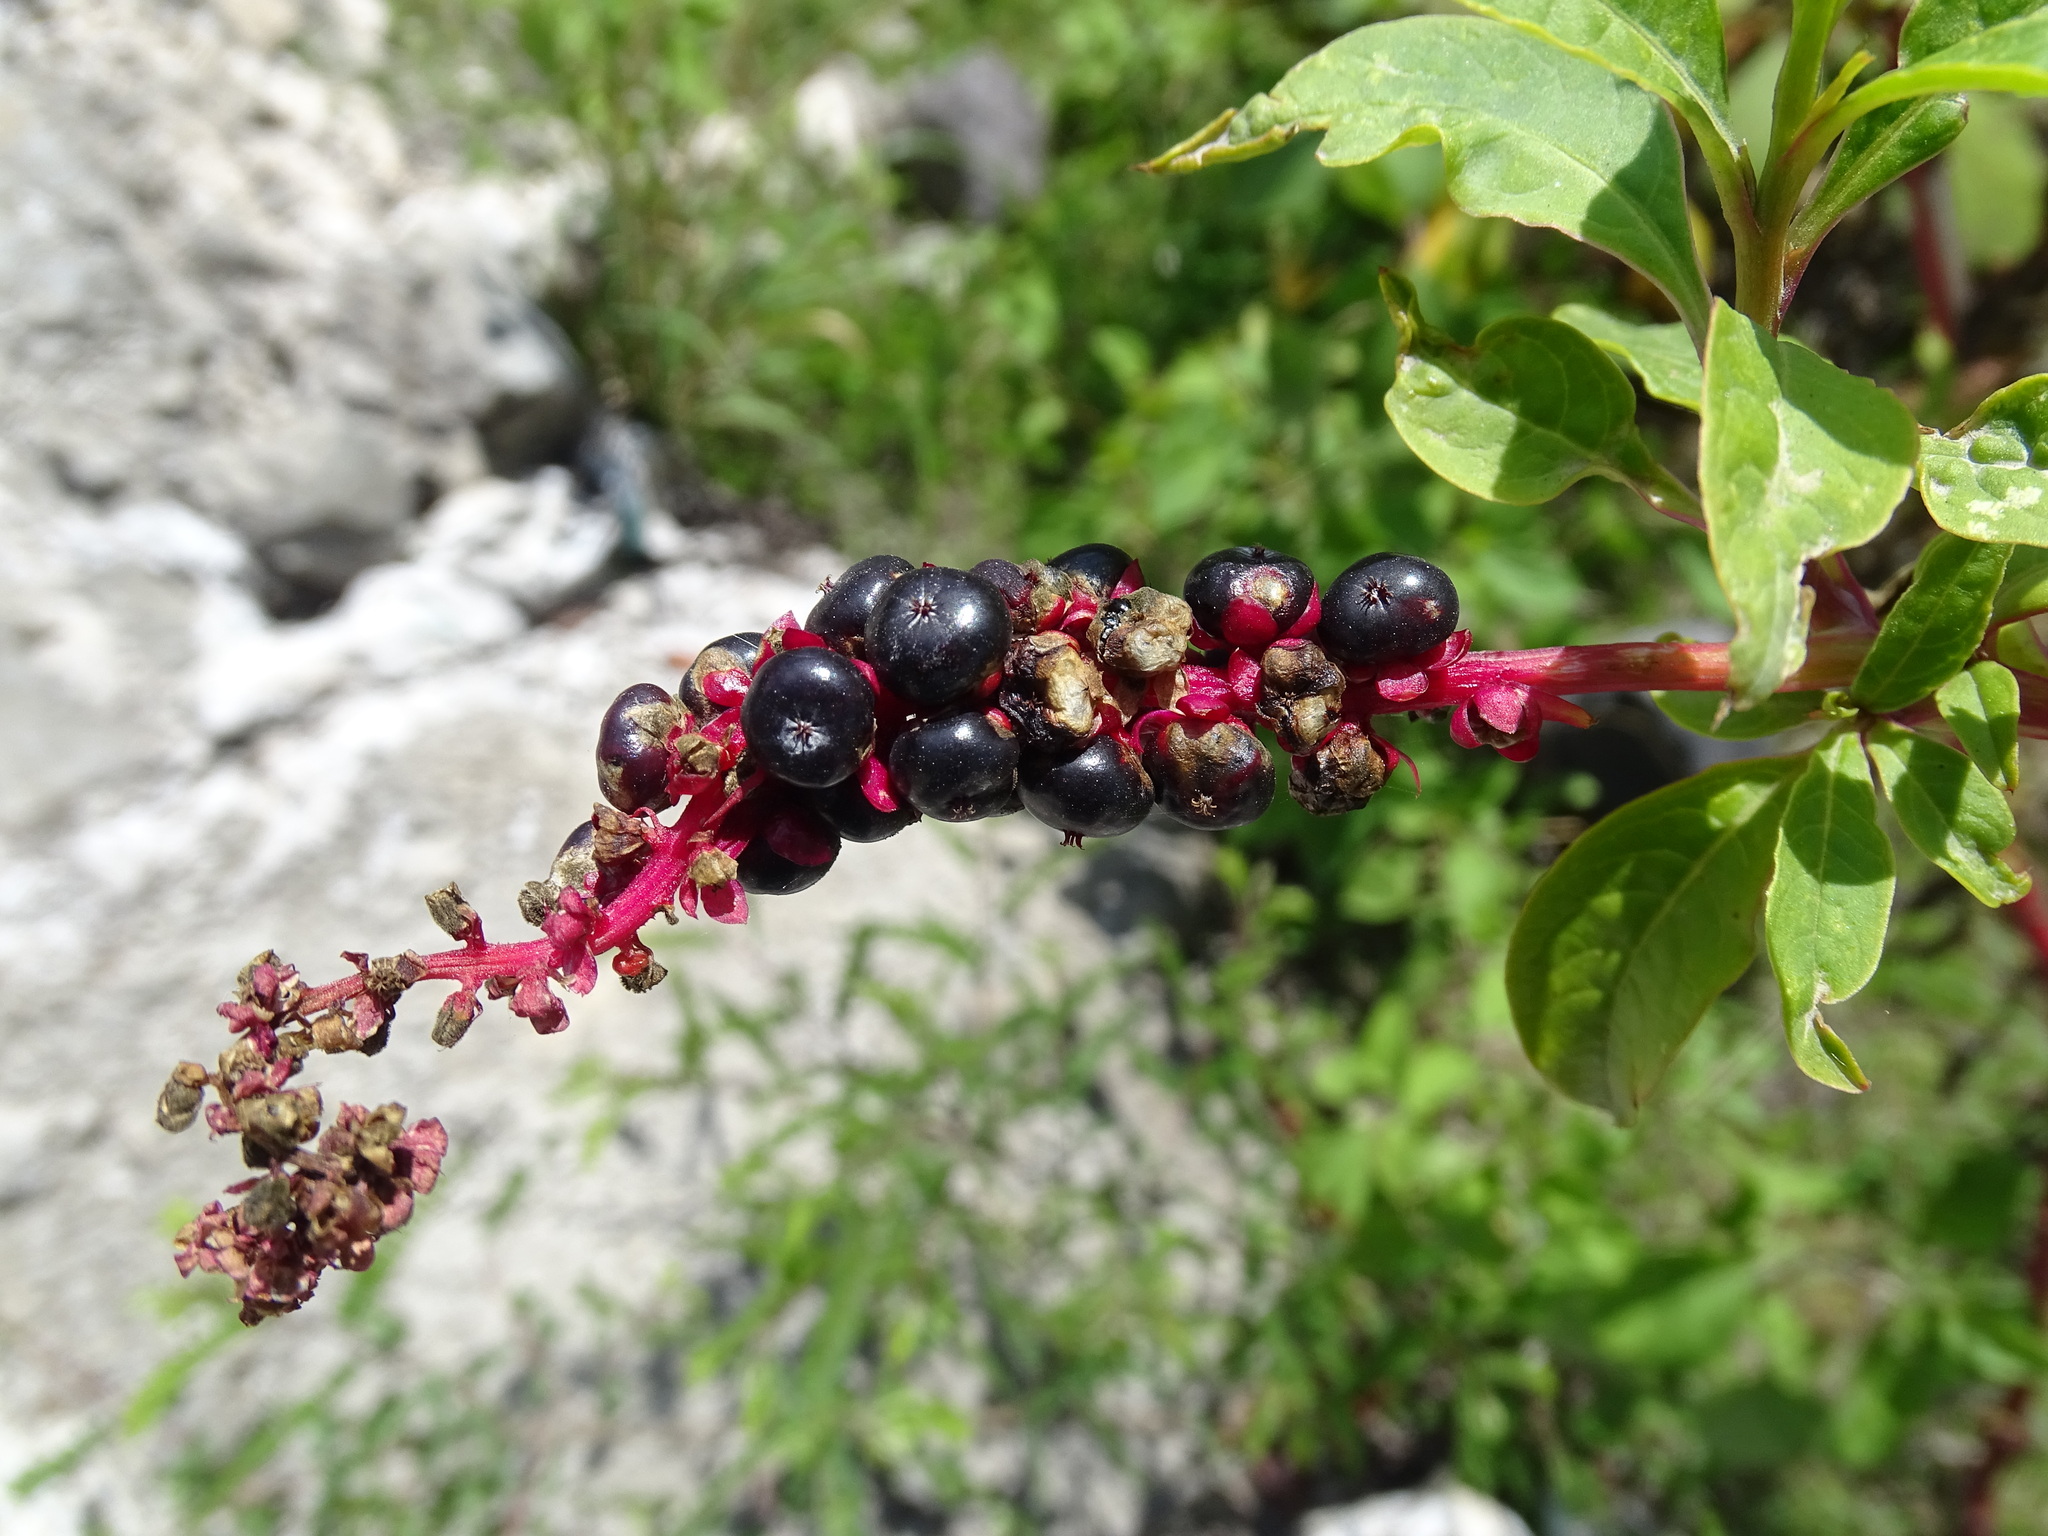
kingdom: Plantae
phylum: Tracheophyta
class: Magnoliopsida
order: Caryophyllales
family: Phytolaccaceae
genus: Phytolacca
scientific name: Phytolacca icosandra
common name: Button pokeweed
